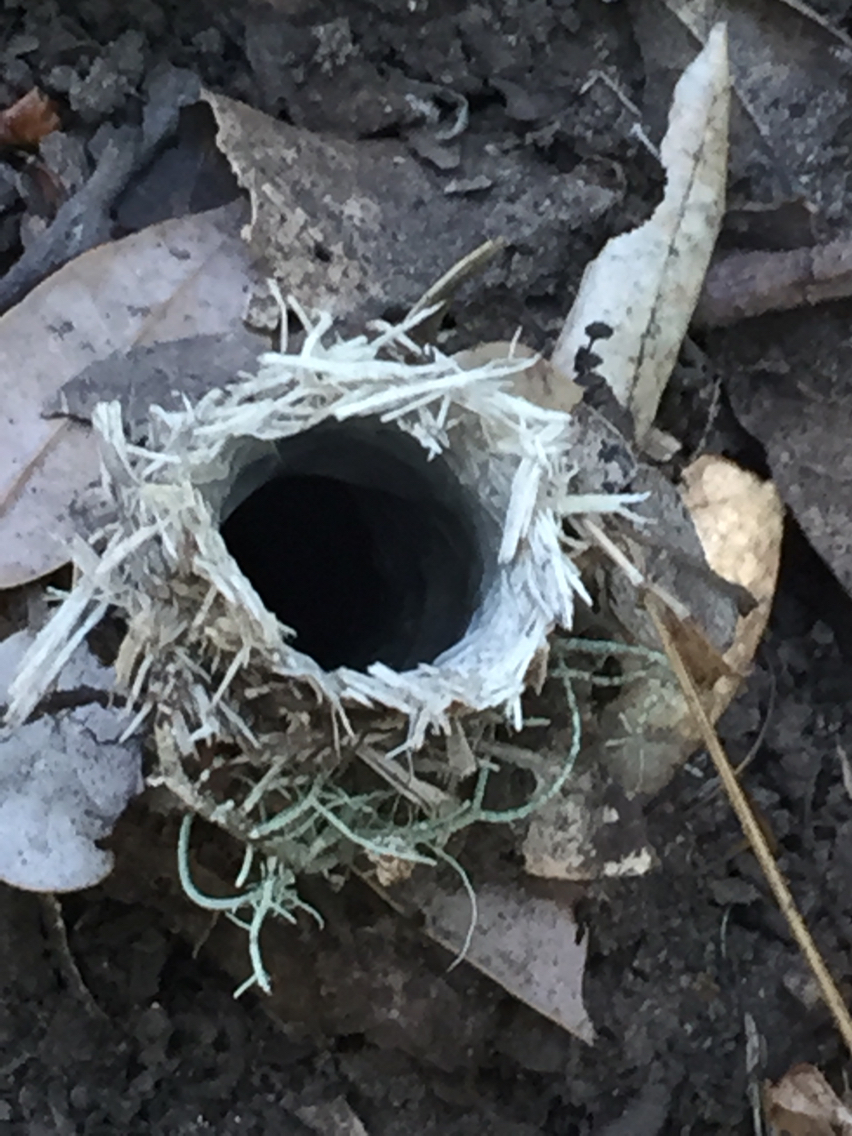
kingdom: Animalia
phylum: Arthropoda
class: Arachnida
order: Araneae
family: Antrodiaetidae
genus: Atypoides
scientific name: Atypoides riversi
